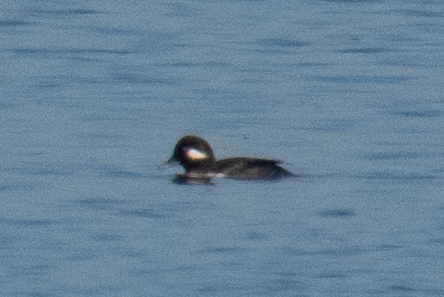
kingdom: Animalia
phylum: Chordata
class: Aves
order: Anseriformes
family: Anatidae
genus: Bucephala
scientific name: Bucephala albeola
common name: Bufflehead
